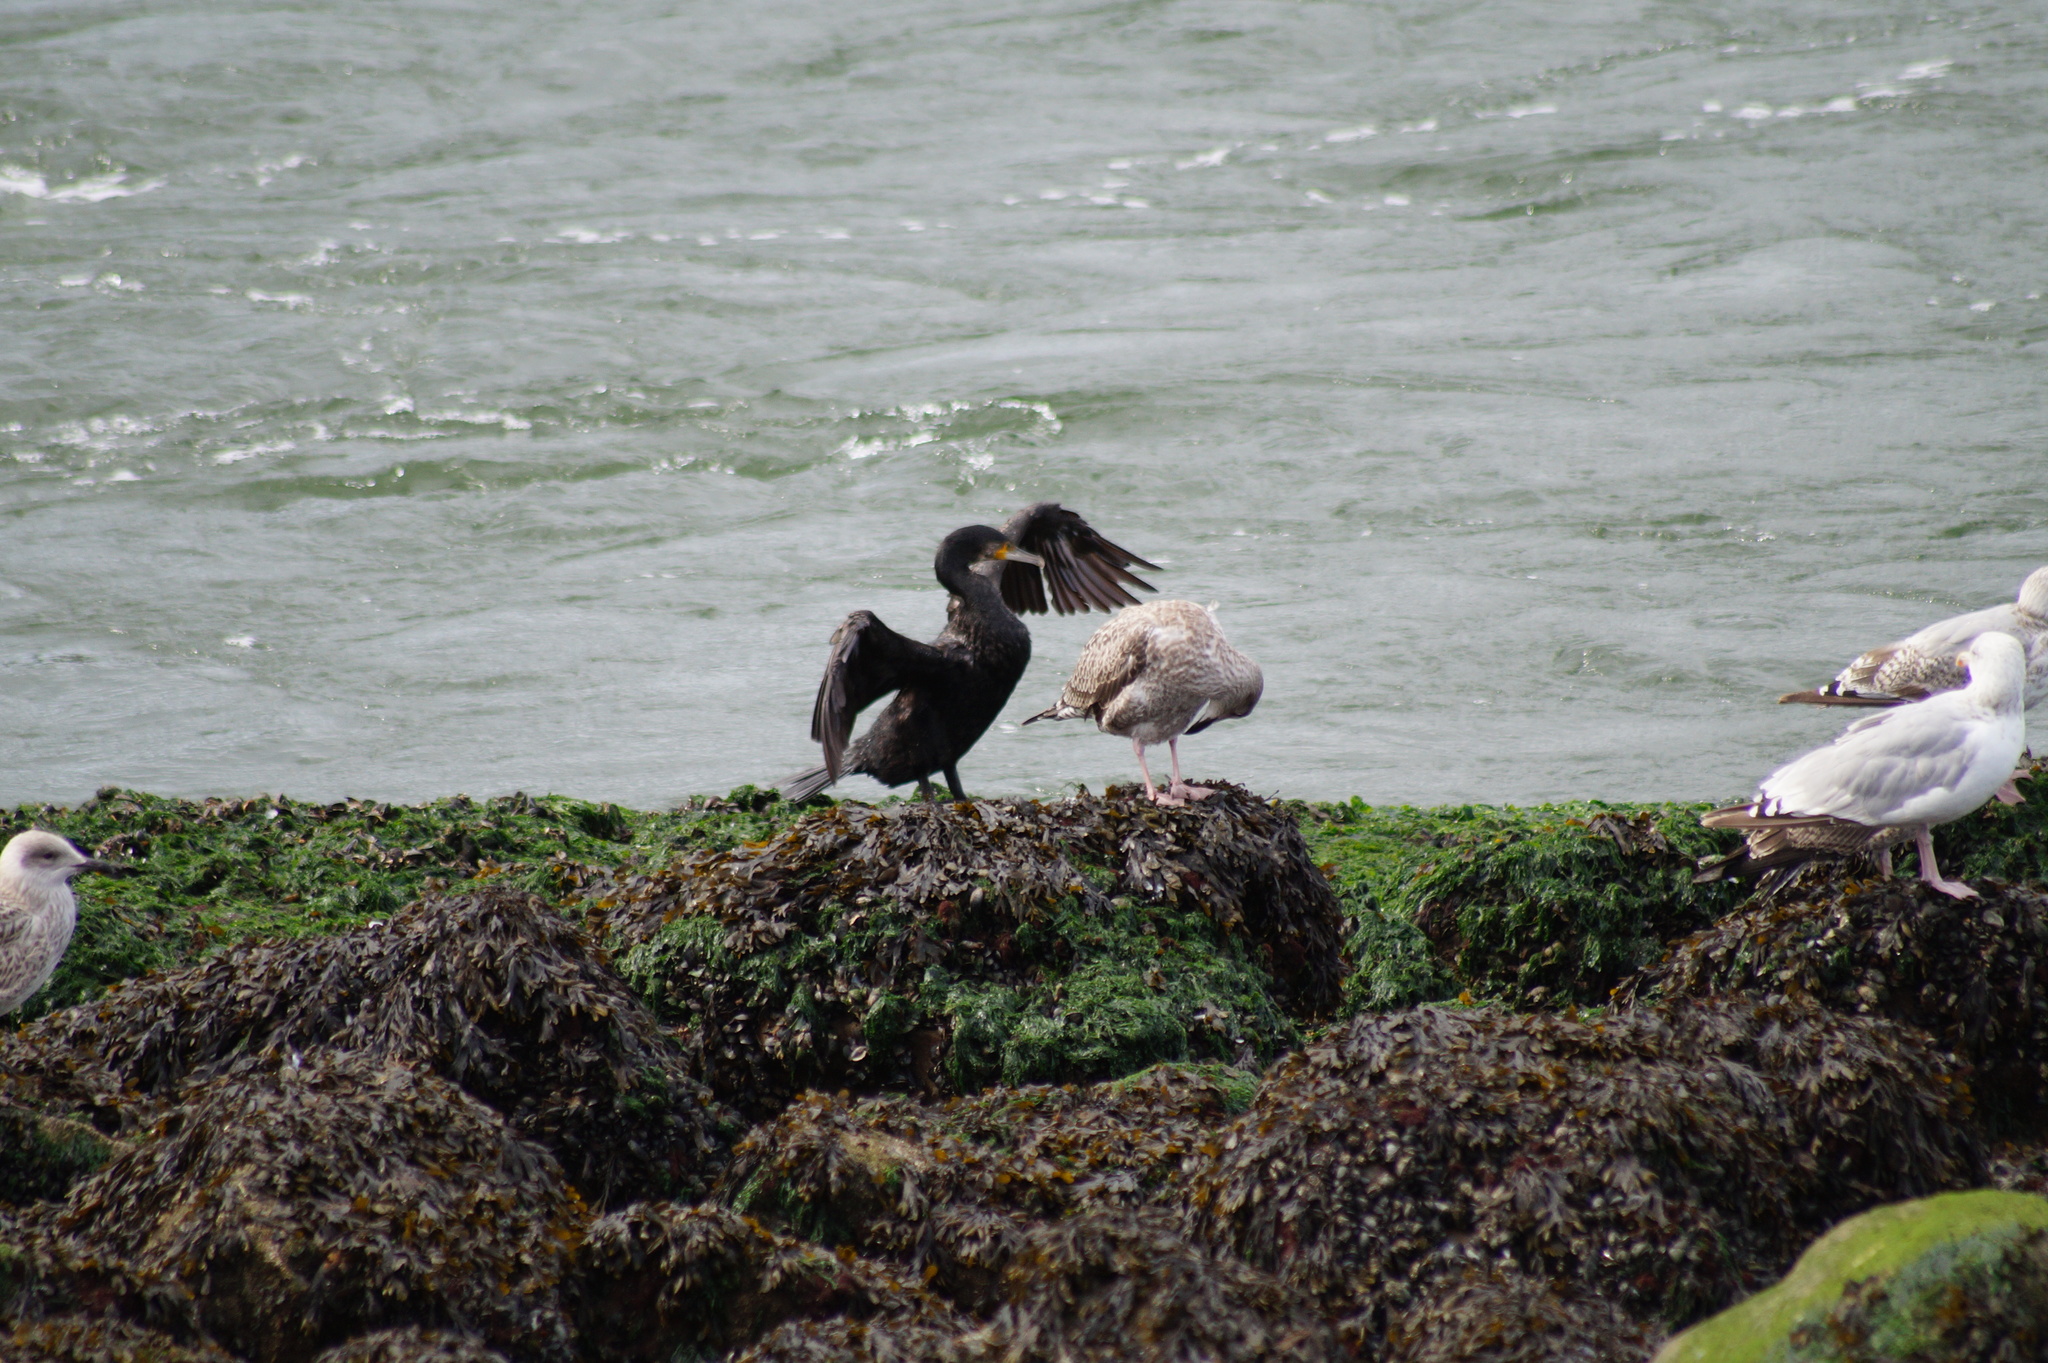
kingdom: Animalia
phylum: Chordata
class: Aves
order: Suliformes
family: Phalacrocoracidae
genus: Phalacrocorax
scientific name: Phalacrocorax carbo
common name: Great cormorant
